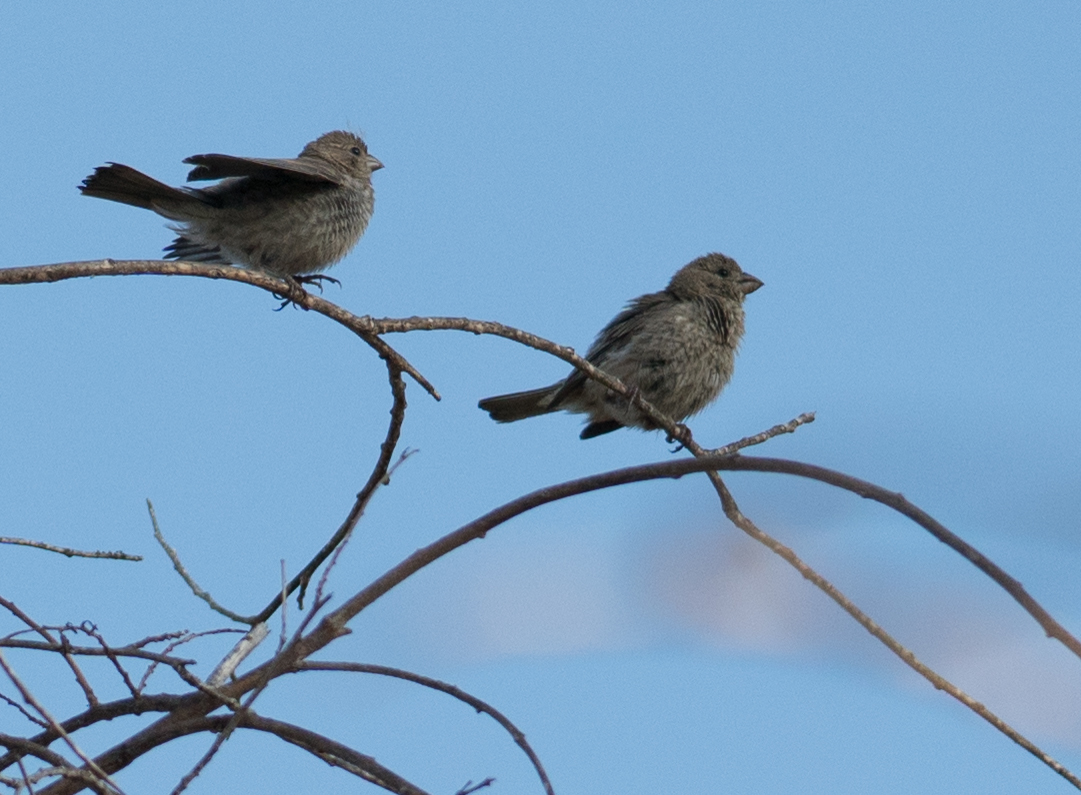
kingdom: Animalia
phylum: Chordata
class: Aves
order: Passeriformes
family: Fringillidae
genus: Haemorhous
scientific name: Haemorhous mexicanus
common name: House finch
